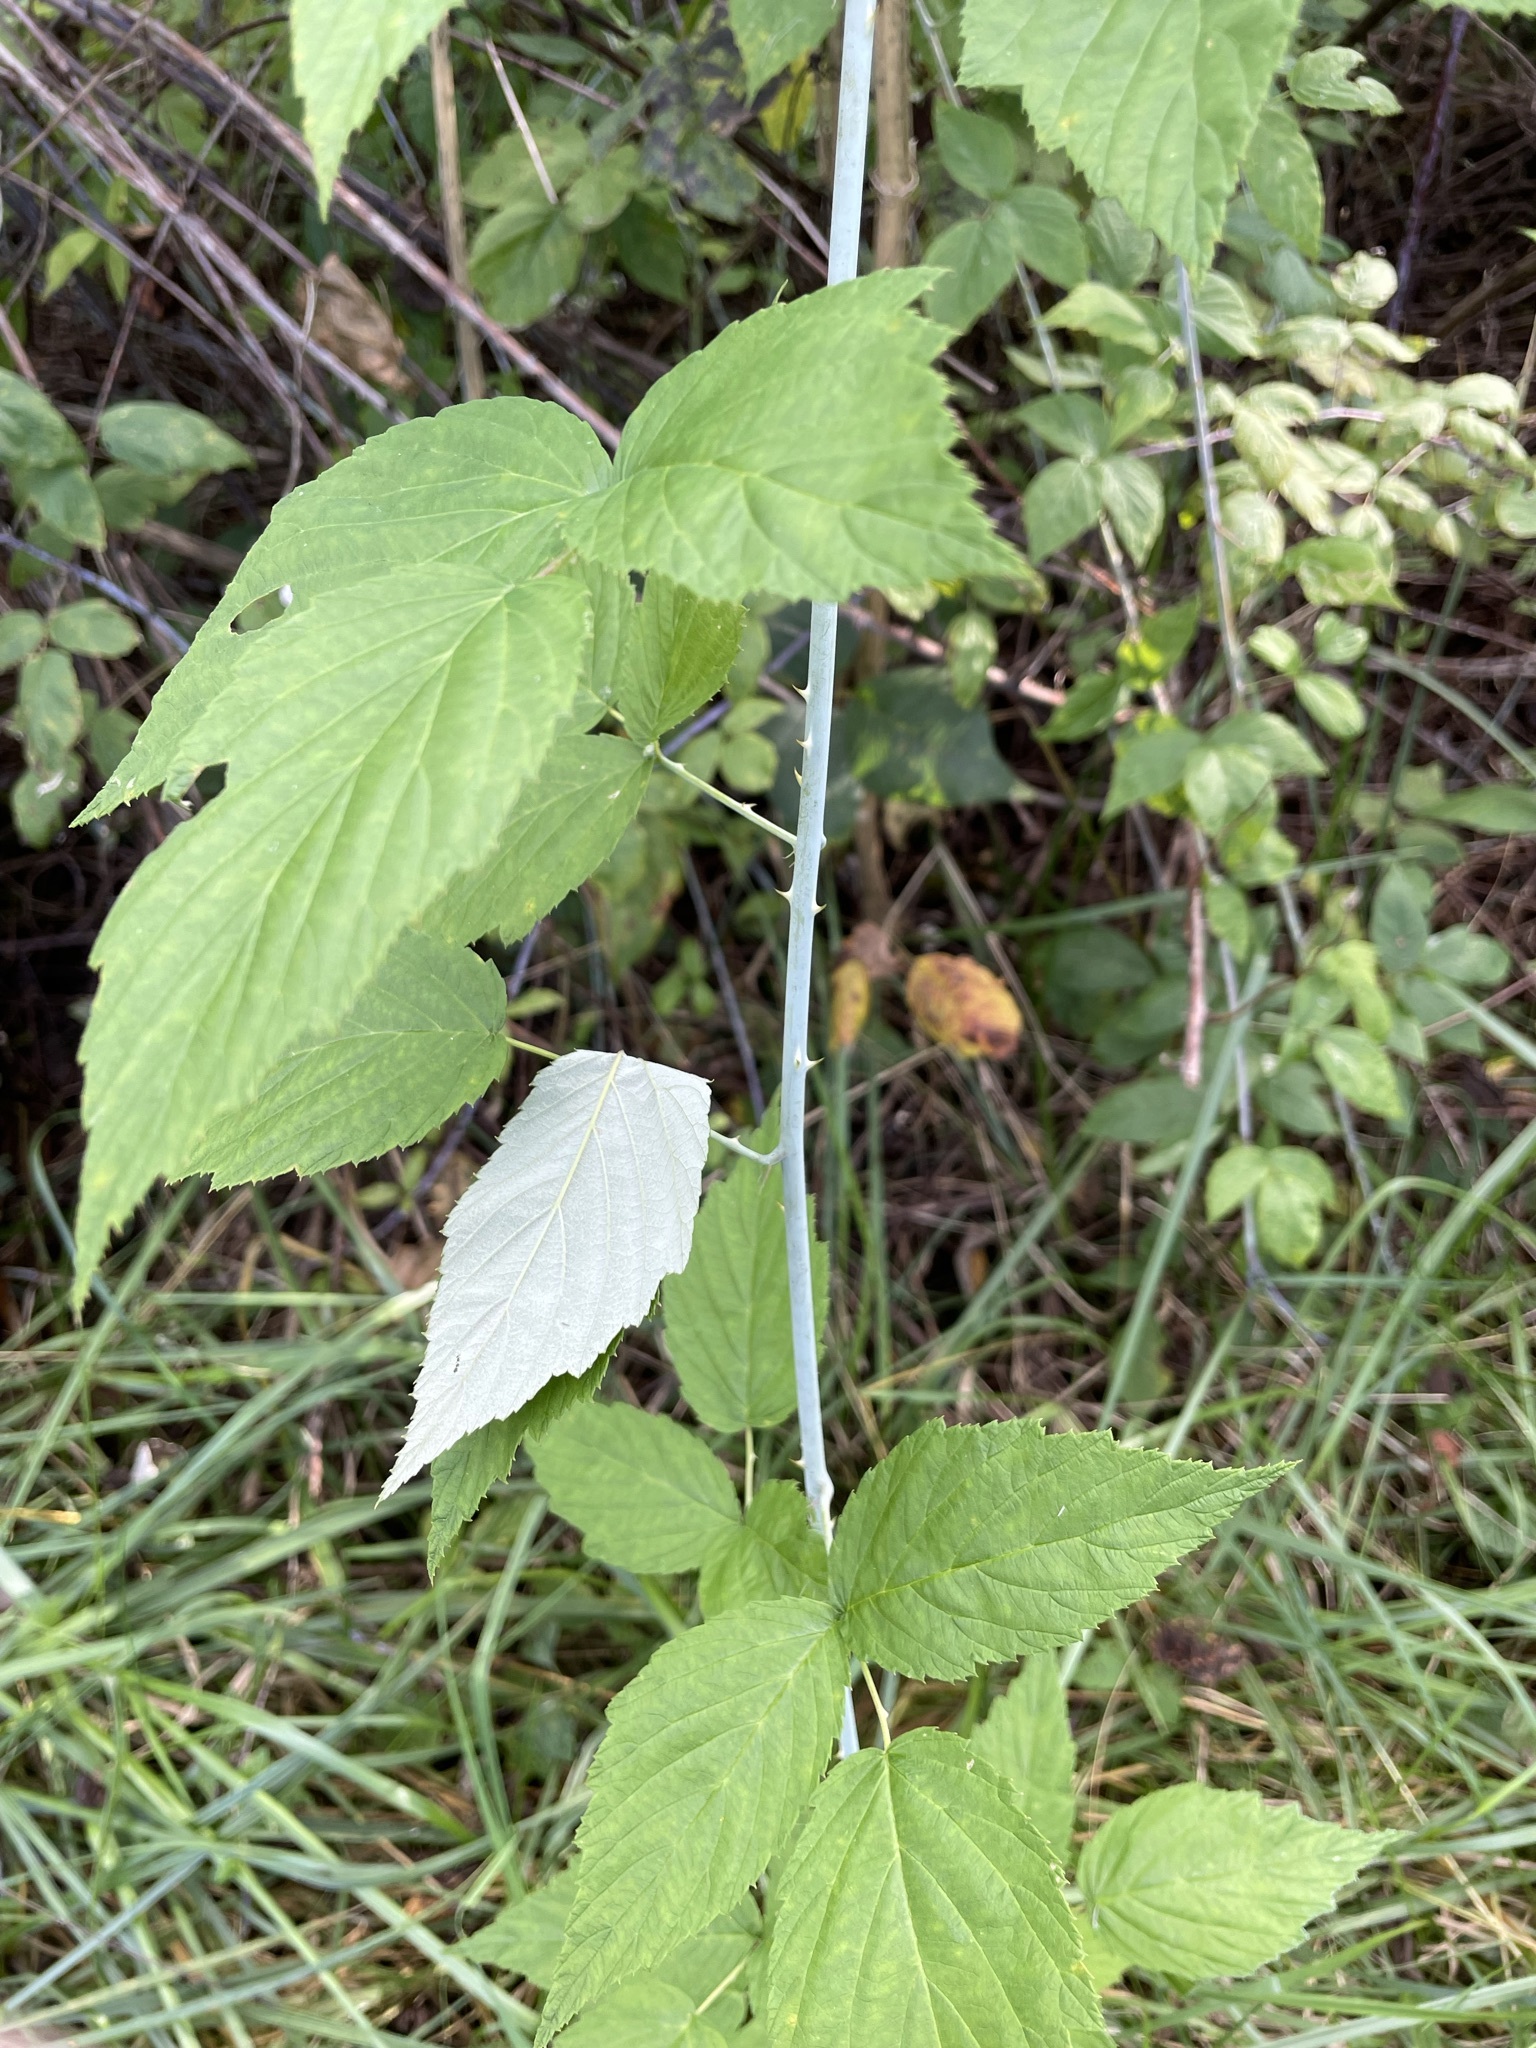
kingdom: Plantae
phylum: Tracheophyta
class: Magnoliopsida
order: Rosales
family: Rosaceae
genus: Rubus
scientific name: Rubus occidentalis
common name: Black raspberry
